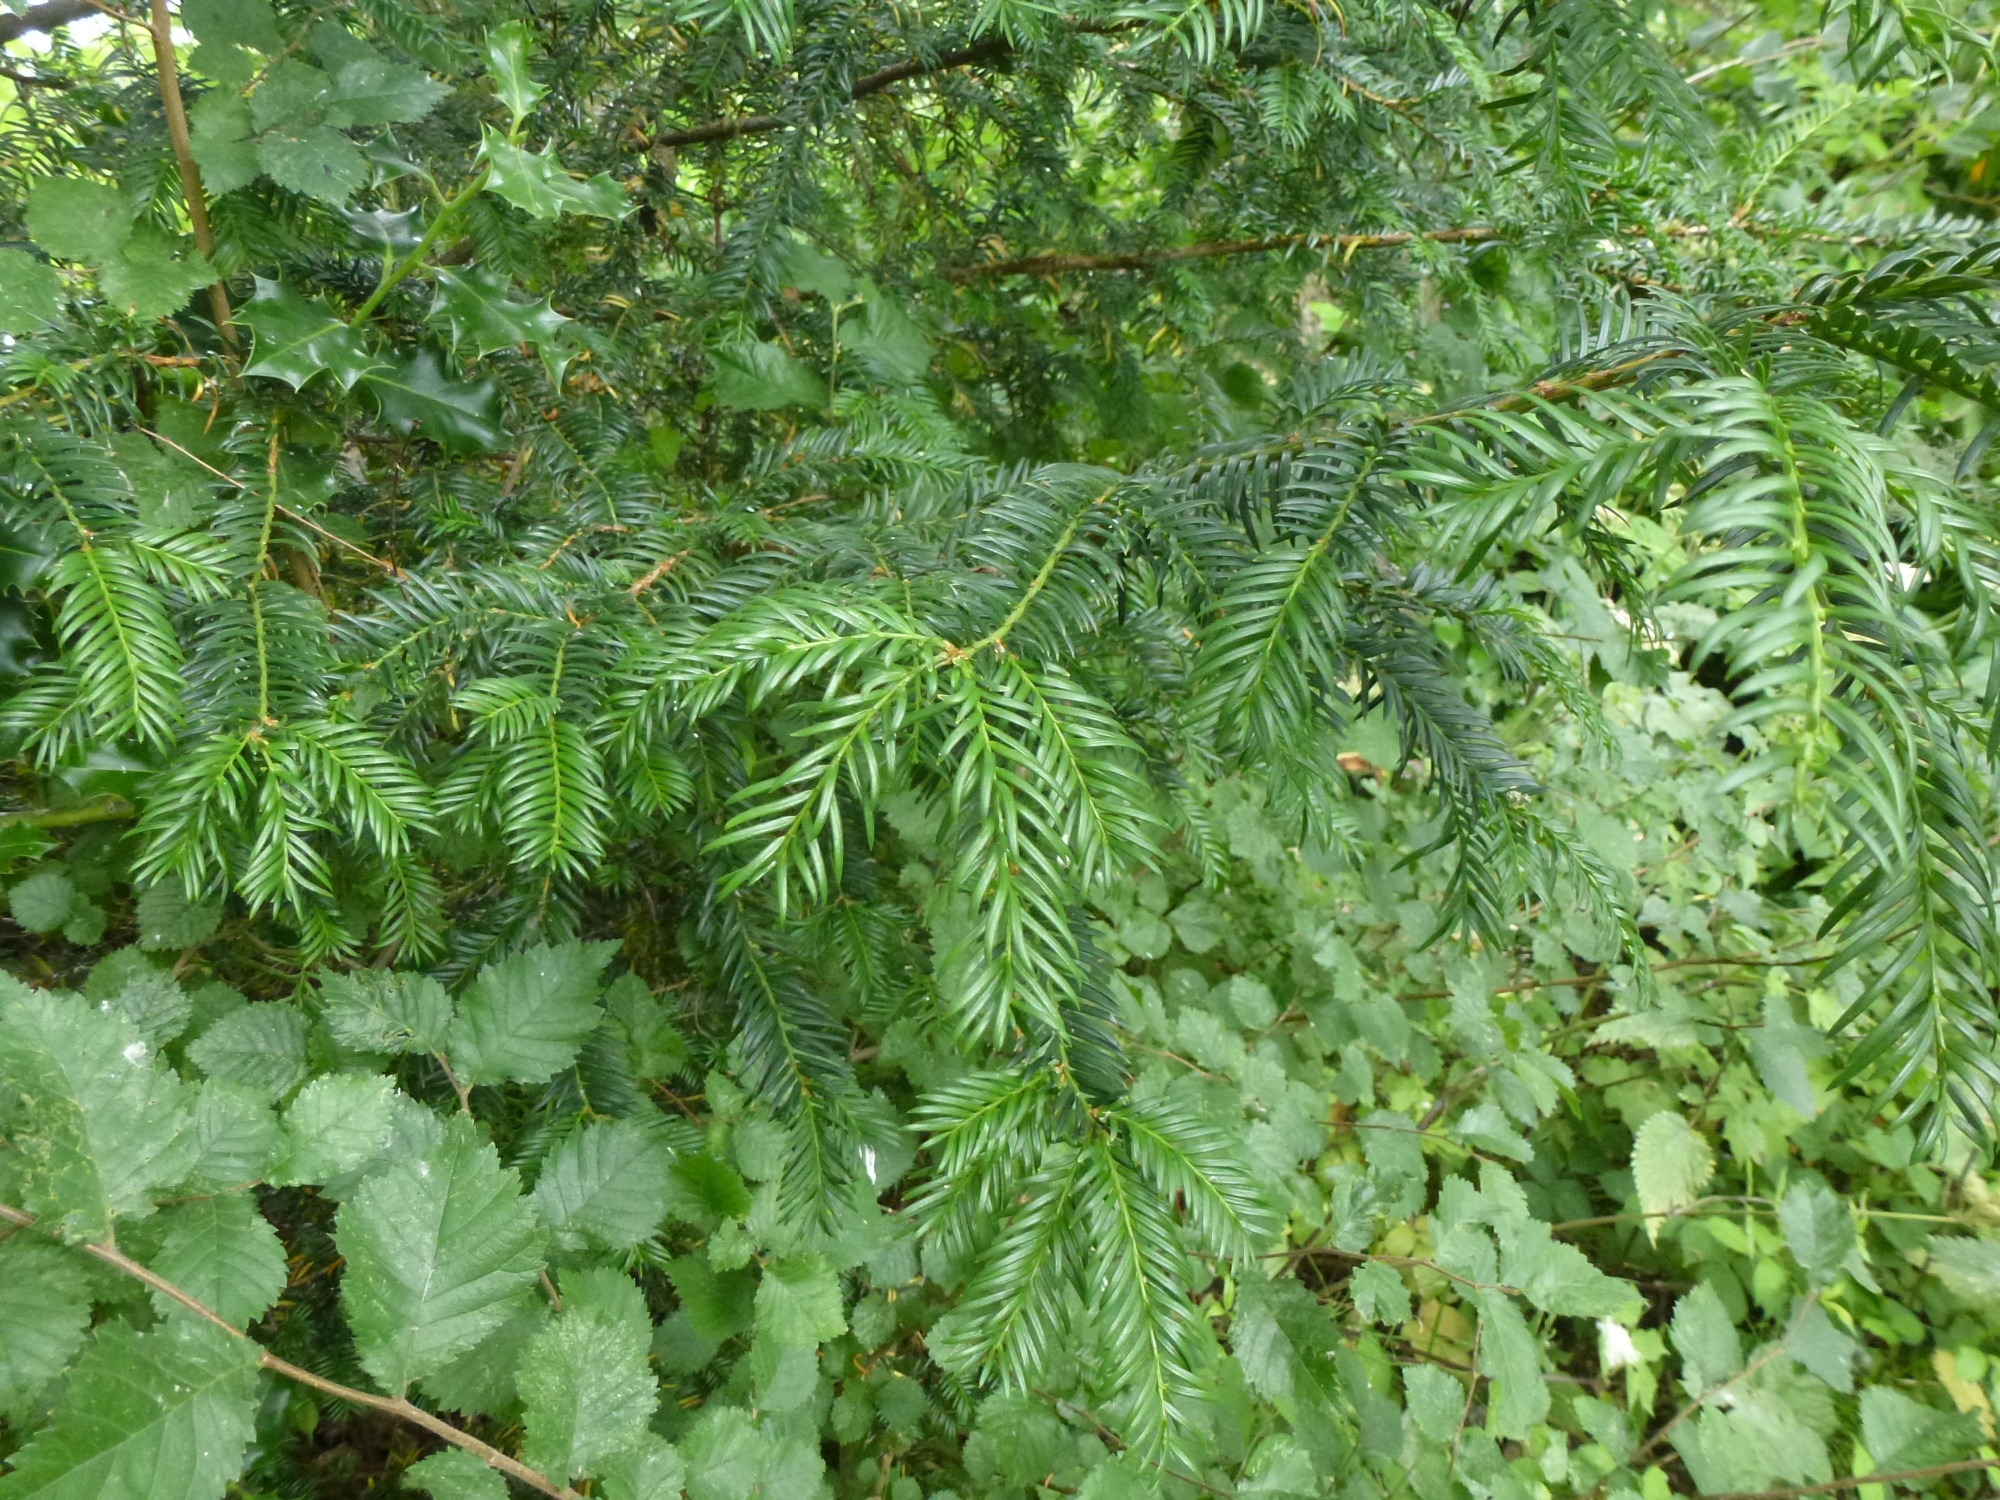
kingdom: Plantae
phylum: Tracheophyta
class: Pinopsida
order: Pinales
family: Taxaceae
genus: Taxus
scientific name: Taxus baccata
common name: Yew
